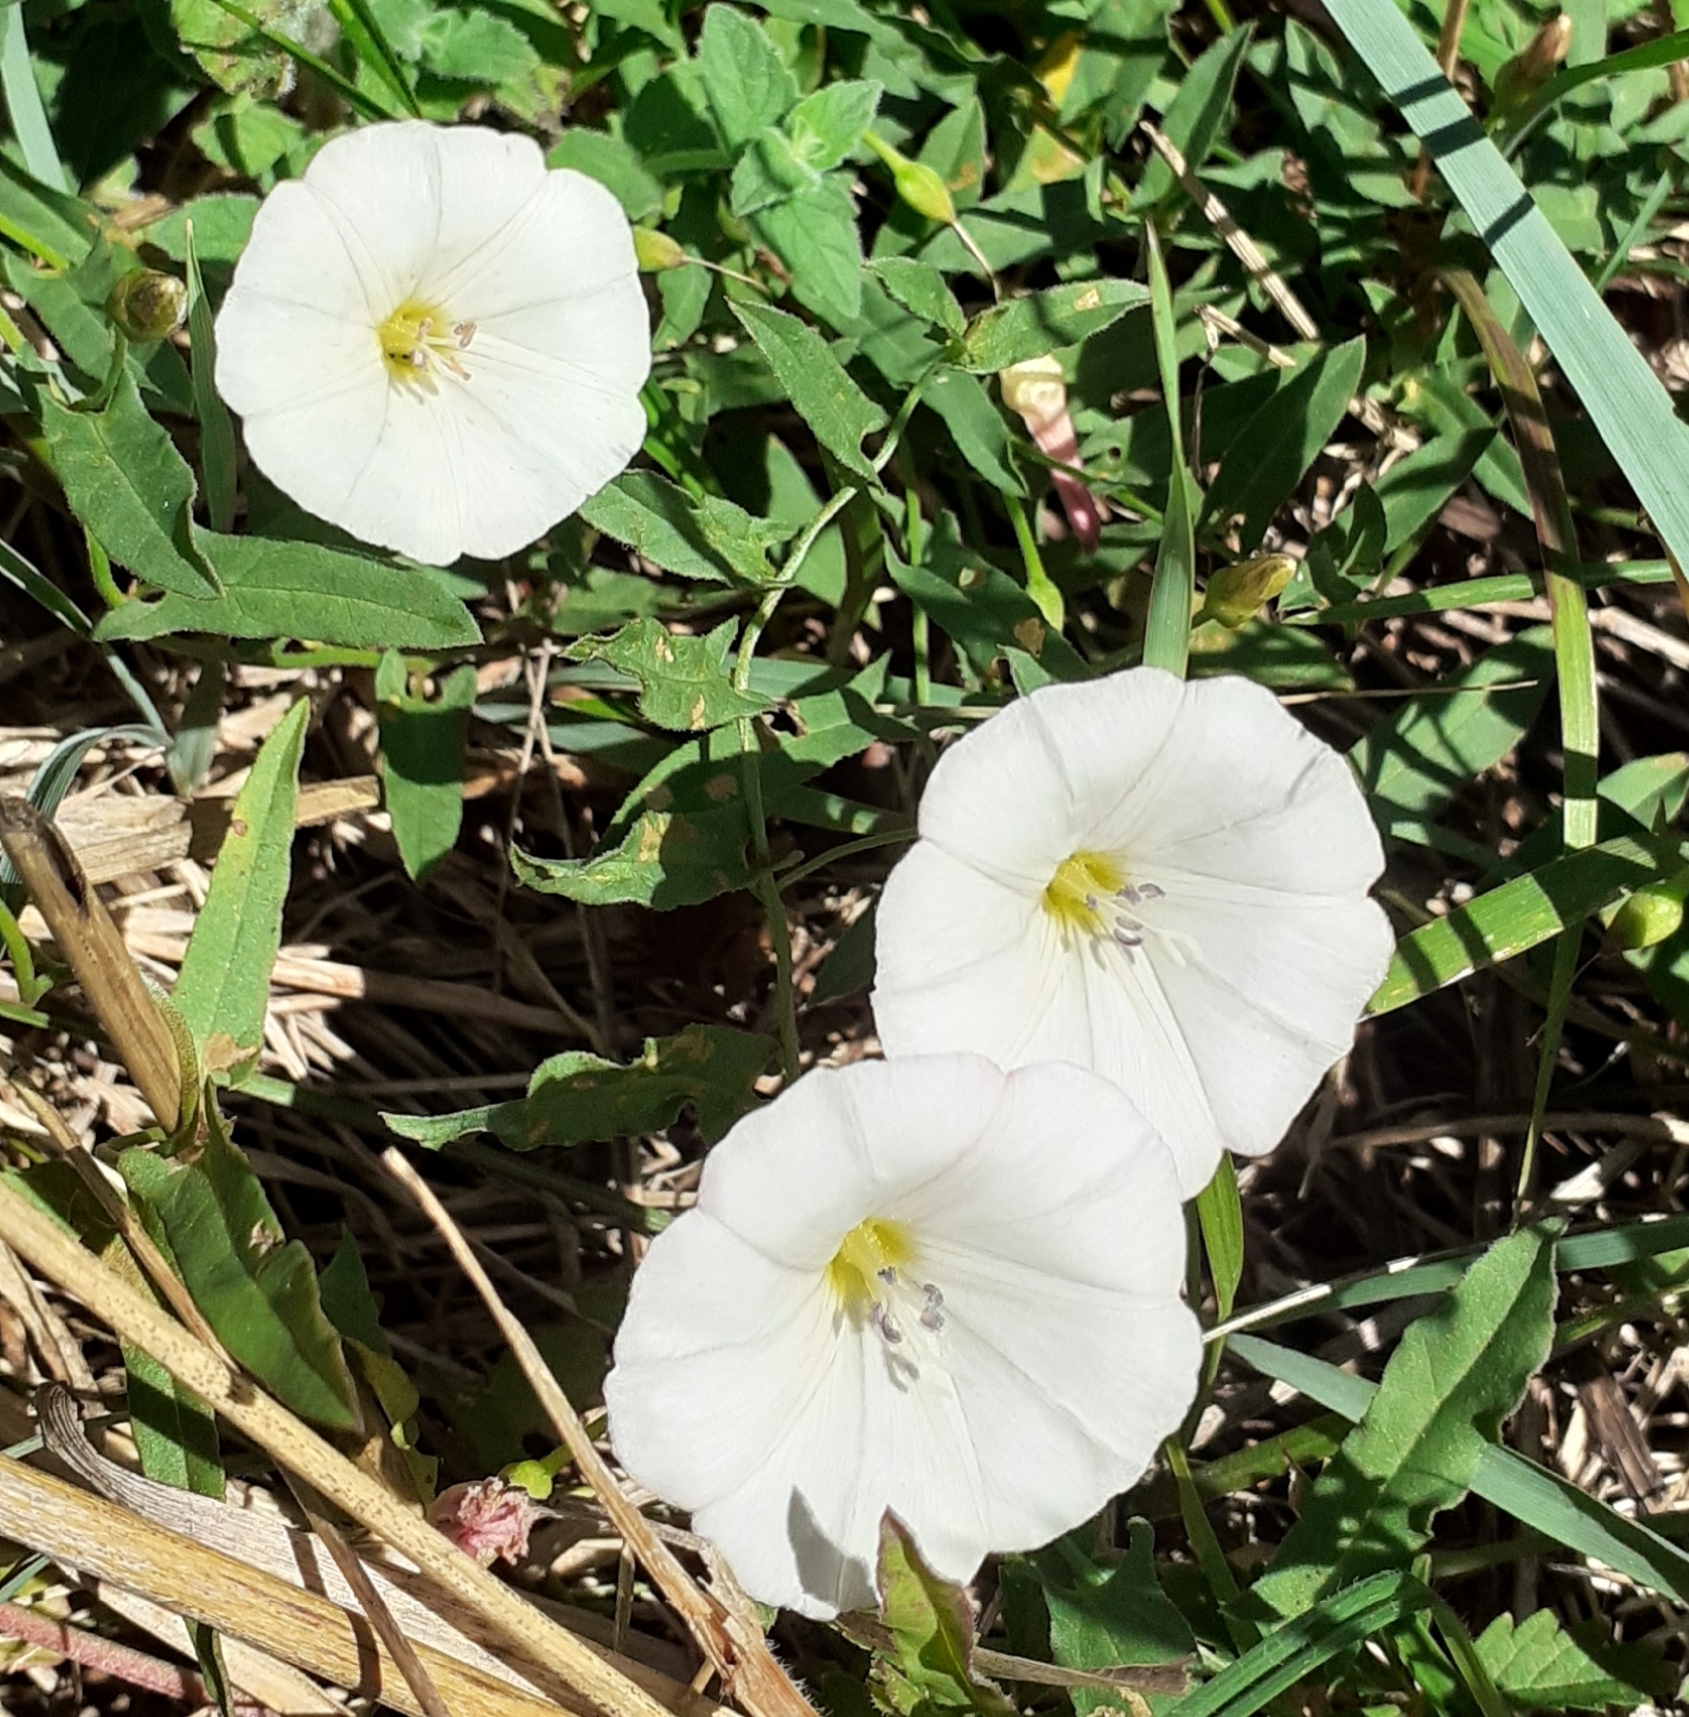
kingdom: Plantae
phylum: Tracheophyta
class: Magnoliopsida
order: Solanales
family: Convolvulaceae
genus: Convolvulus
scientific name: Convolvulus arvensis
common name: Field bindweed
